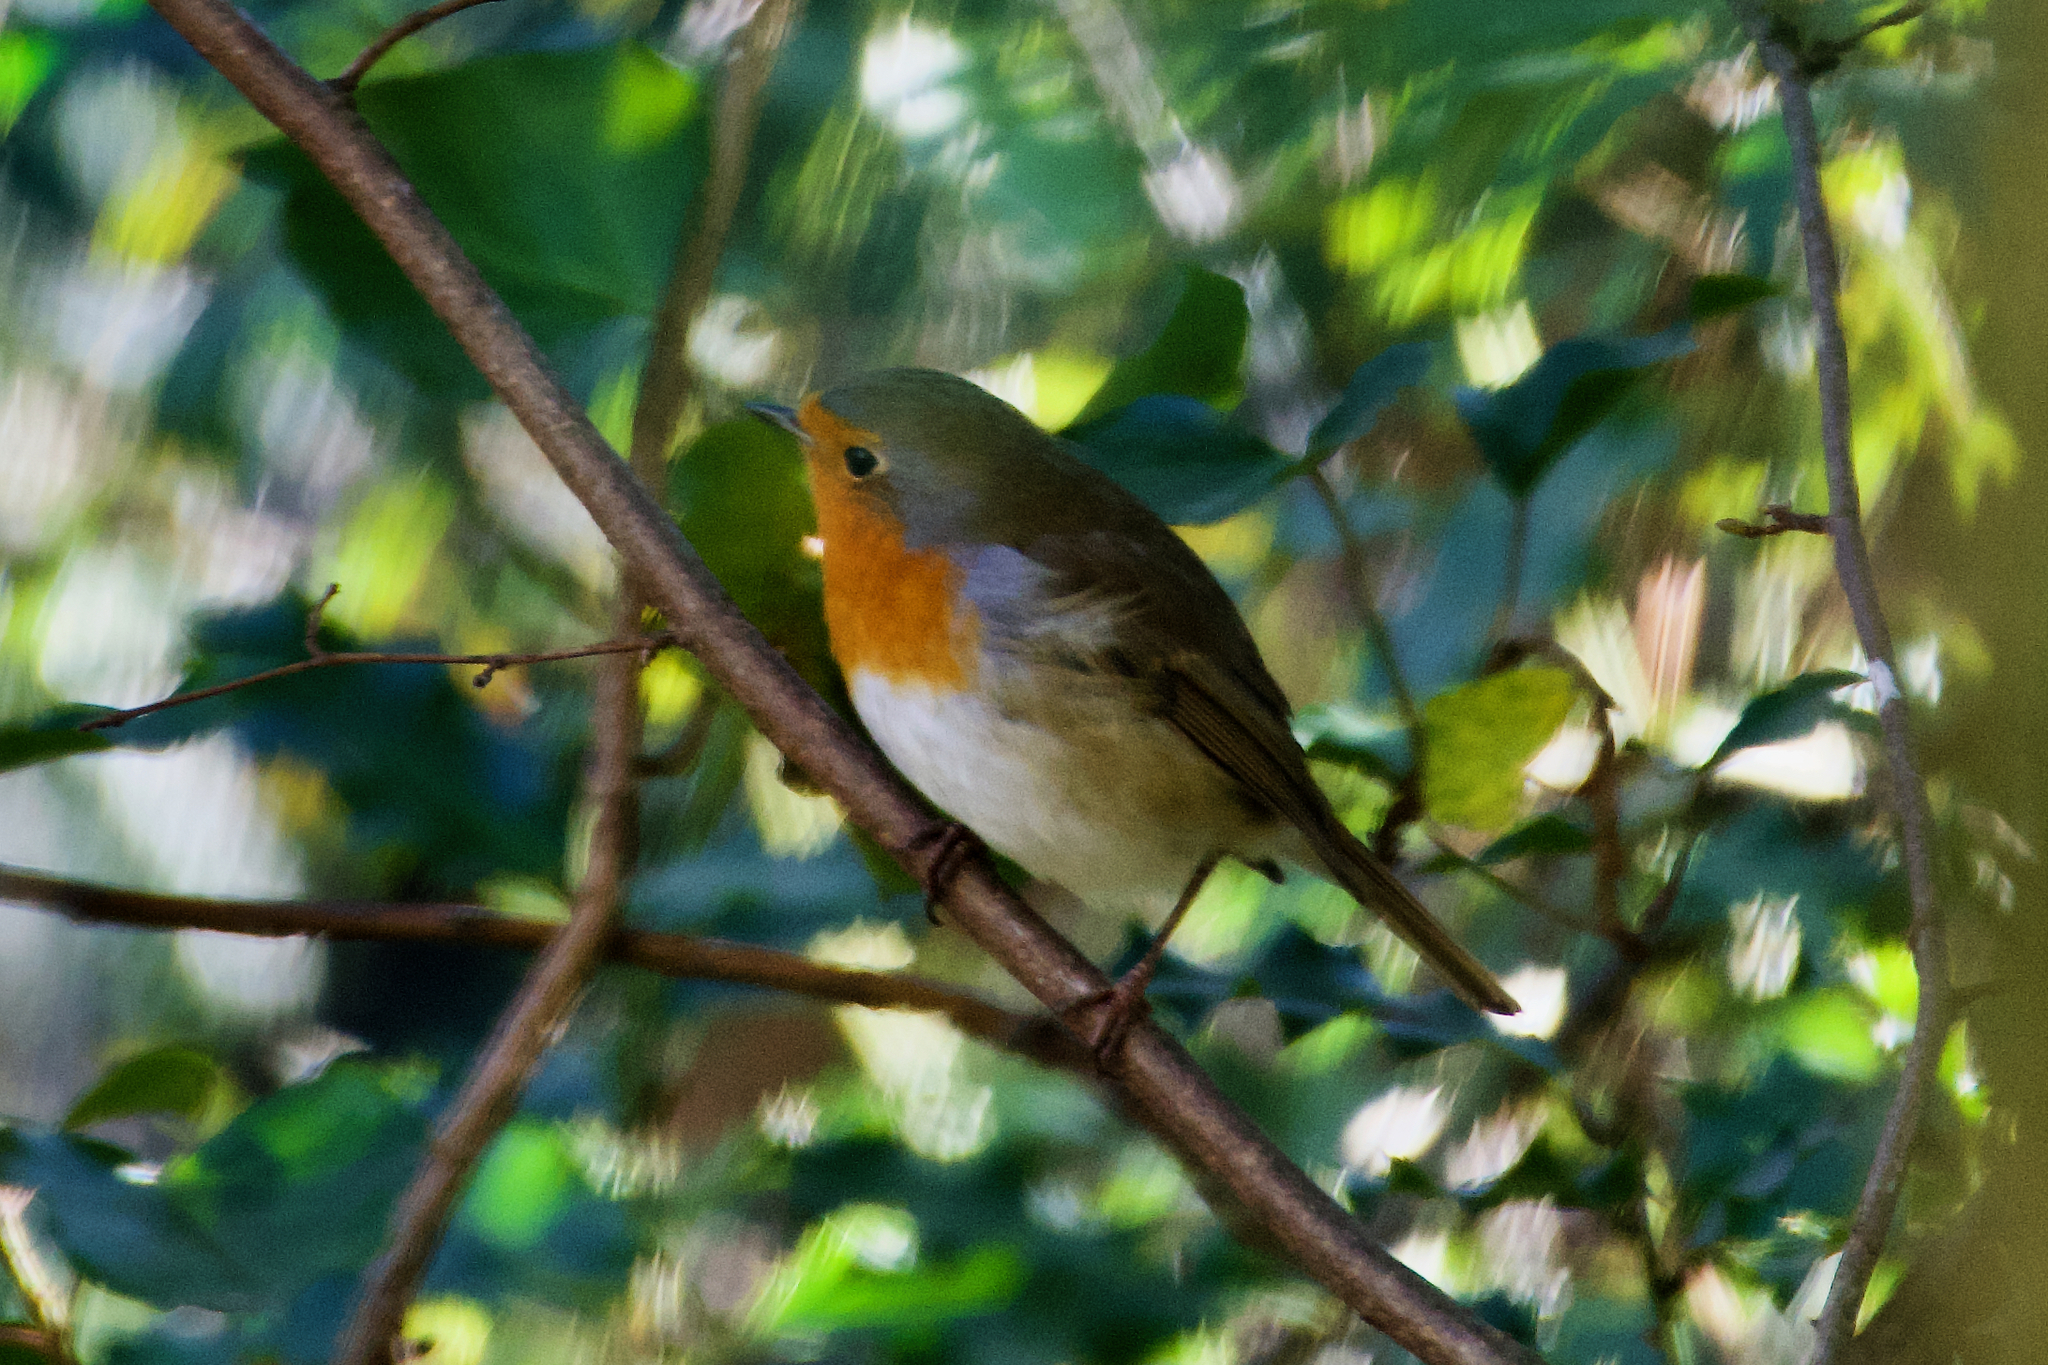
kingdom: Animalia
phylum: Chordata
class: Aves
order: Passeriformes
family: Muscicapidae
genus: Erithacus
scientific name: Erithacus rubecula
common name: European robin
